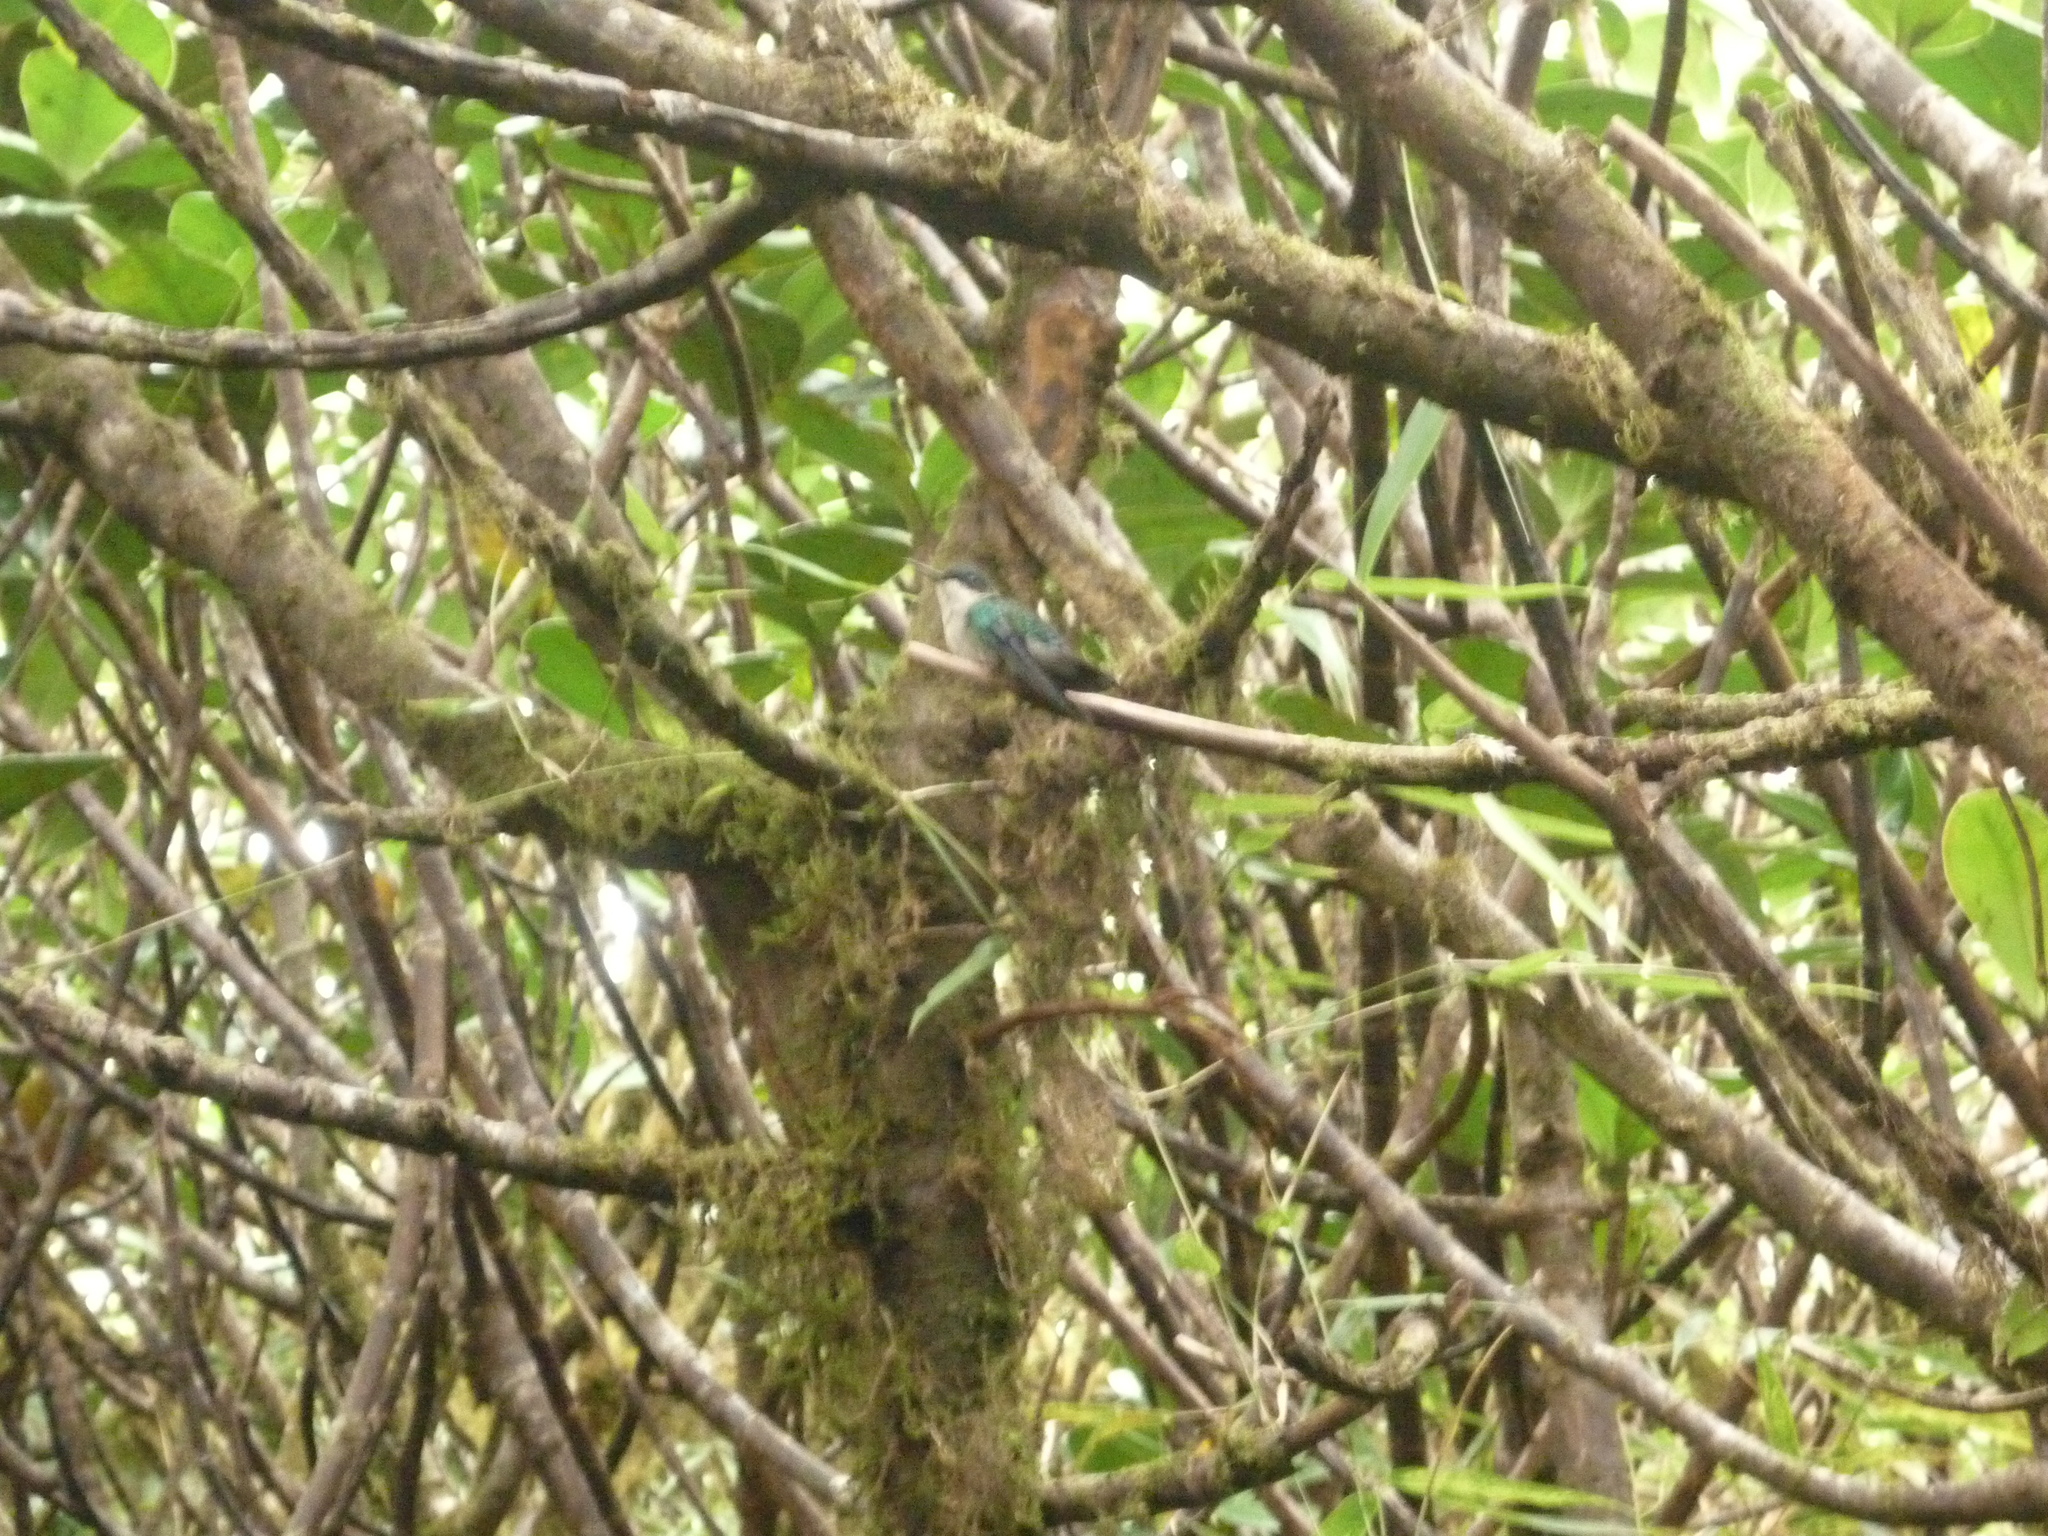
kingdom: Animalia
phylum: Chordata
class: Aves
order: Apodiformes
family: Trochilidae
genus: Riccordia
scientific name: Riccordia bicolor
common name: Blue-headed hummingbird
